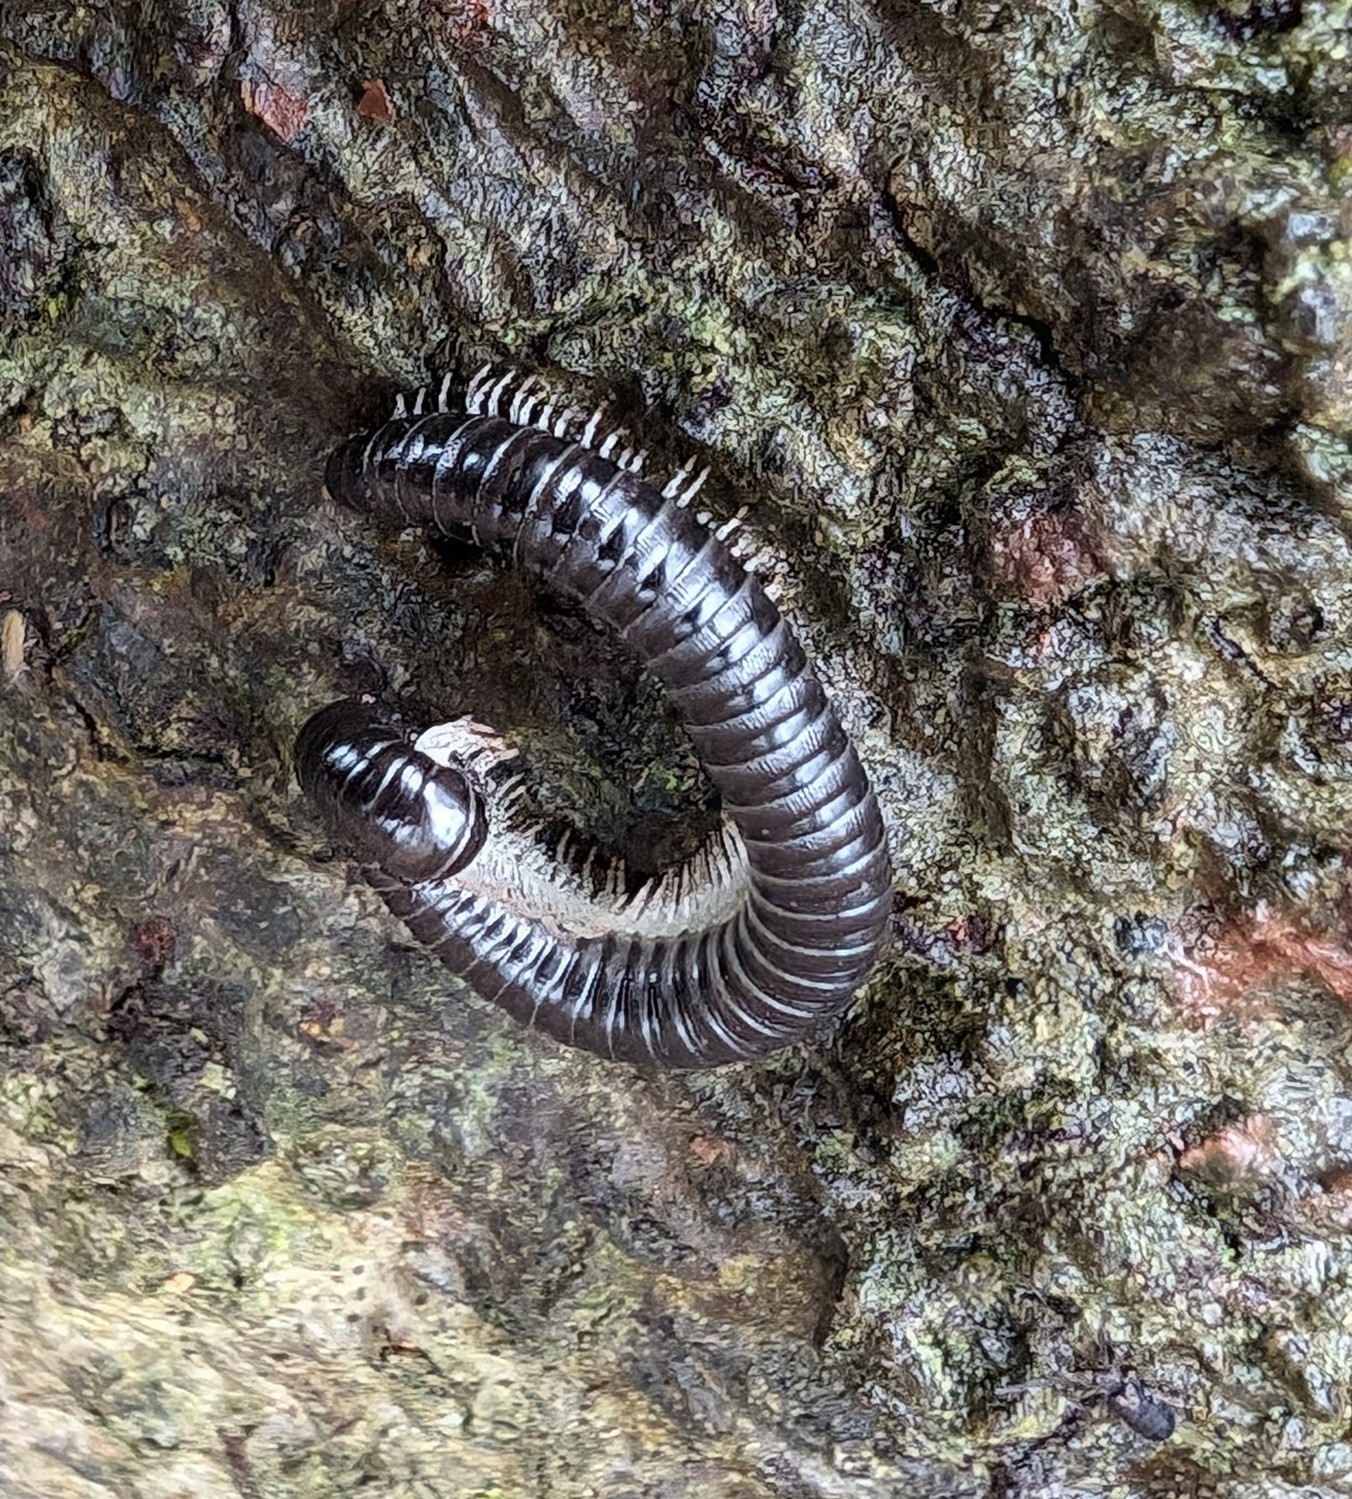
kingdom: Animalia
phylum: Arthropoda
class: Diplopoda
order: Julida
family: Julidae
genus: Tachypodoiulus
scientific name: Tachypodoiulus niger
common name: White-legged snake millipede
